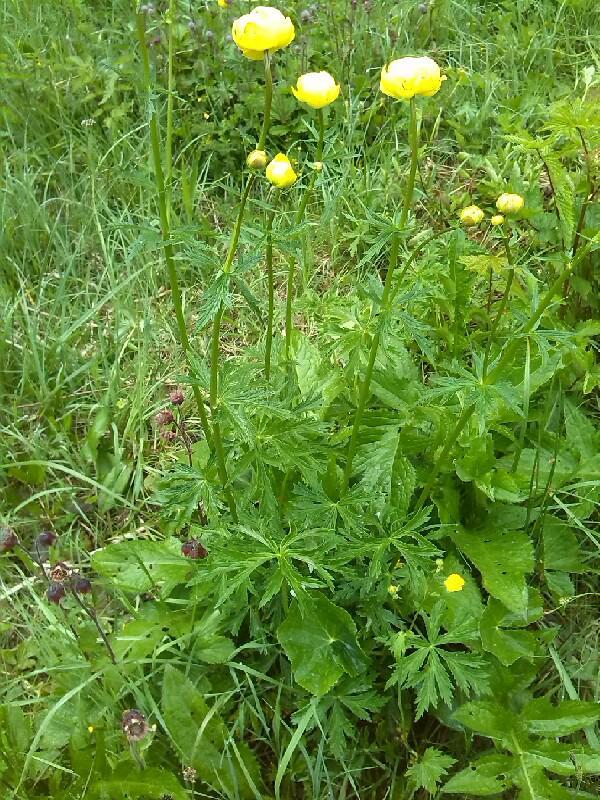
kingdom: Plantae
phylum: Tracheophyta
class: Magnoliopsida
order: Ranunculales
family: Ranunculaceae
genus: Trollius
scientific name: Trollius europaeus
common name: European globeflower
